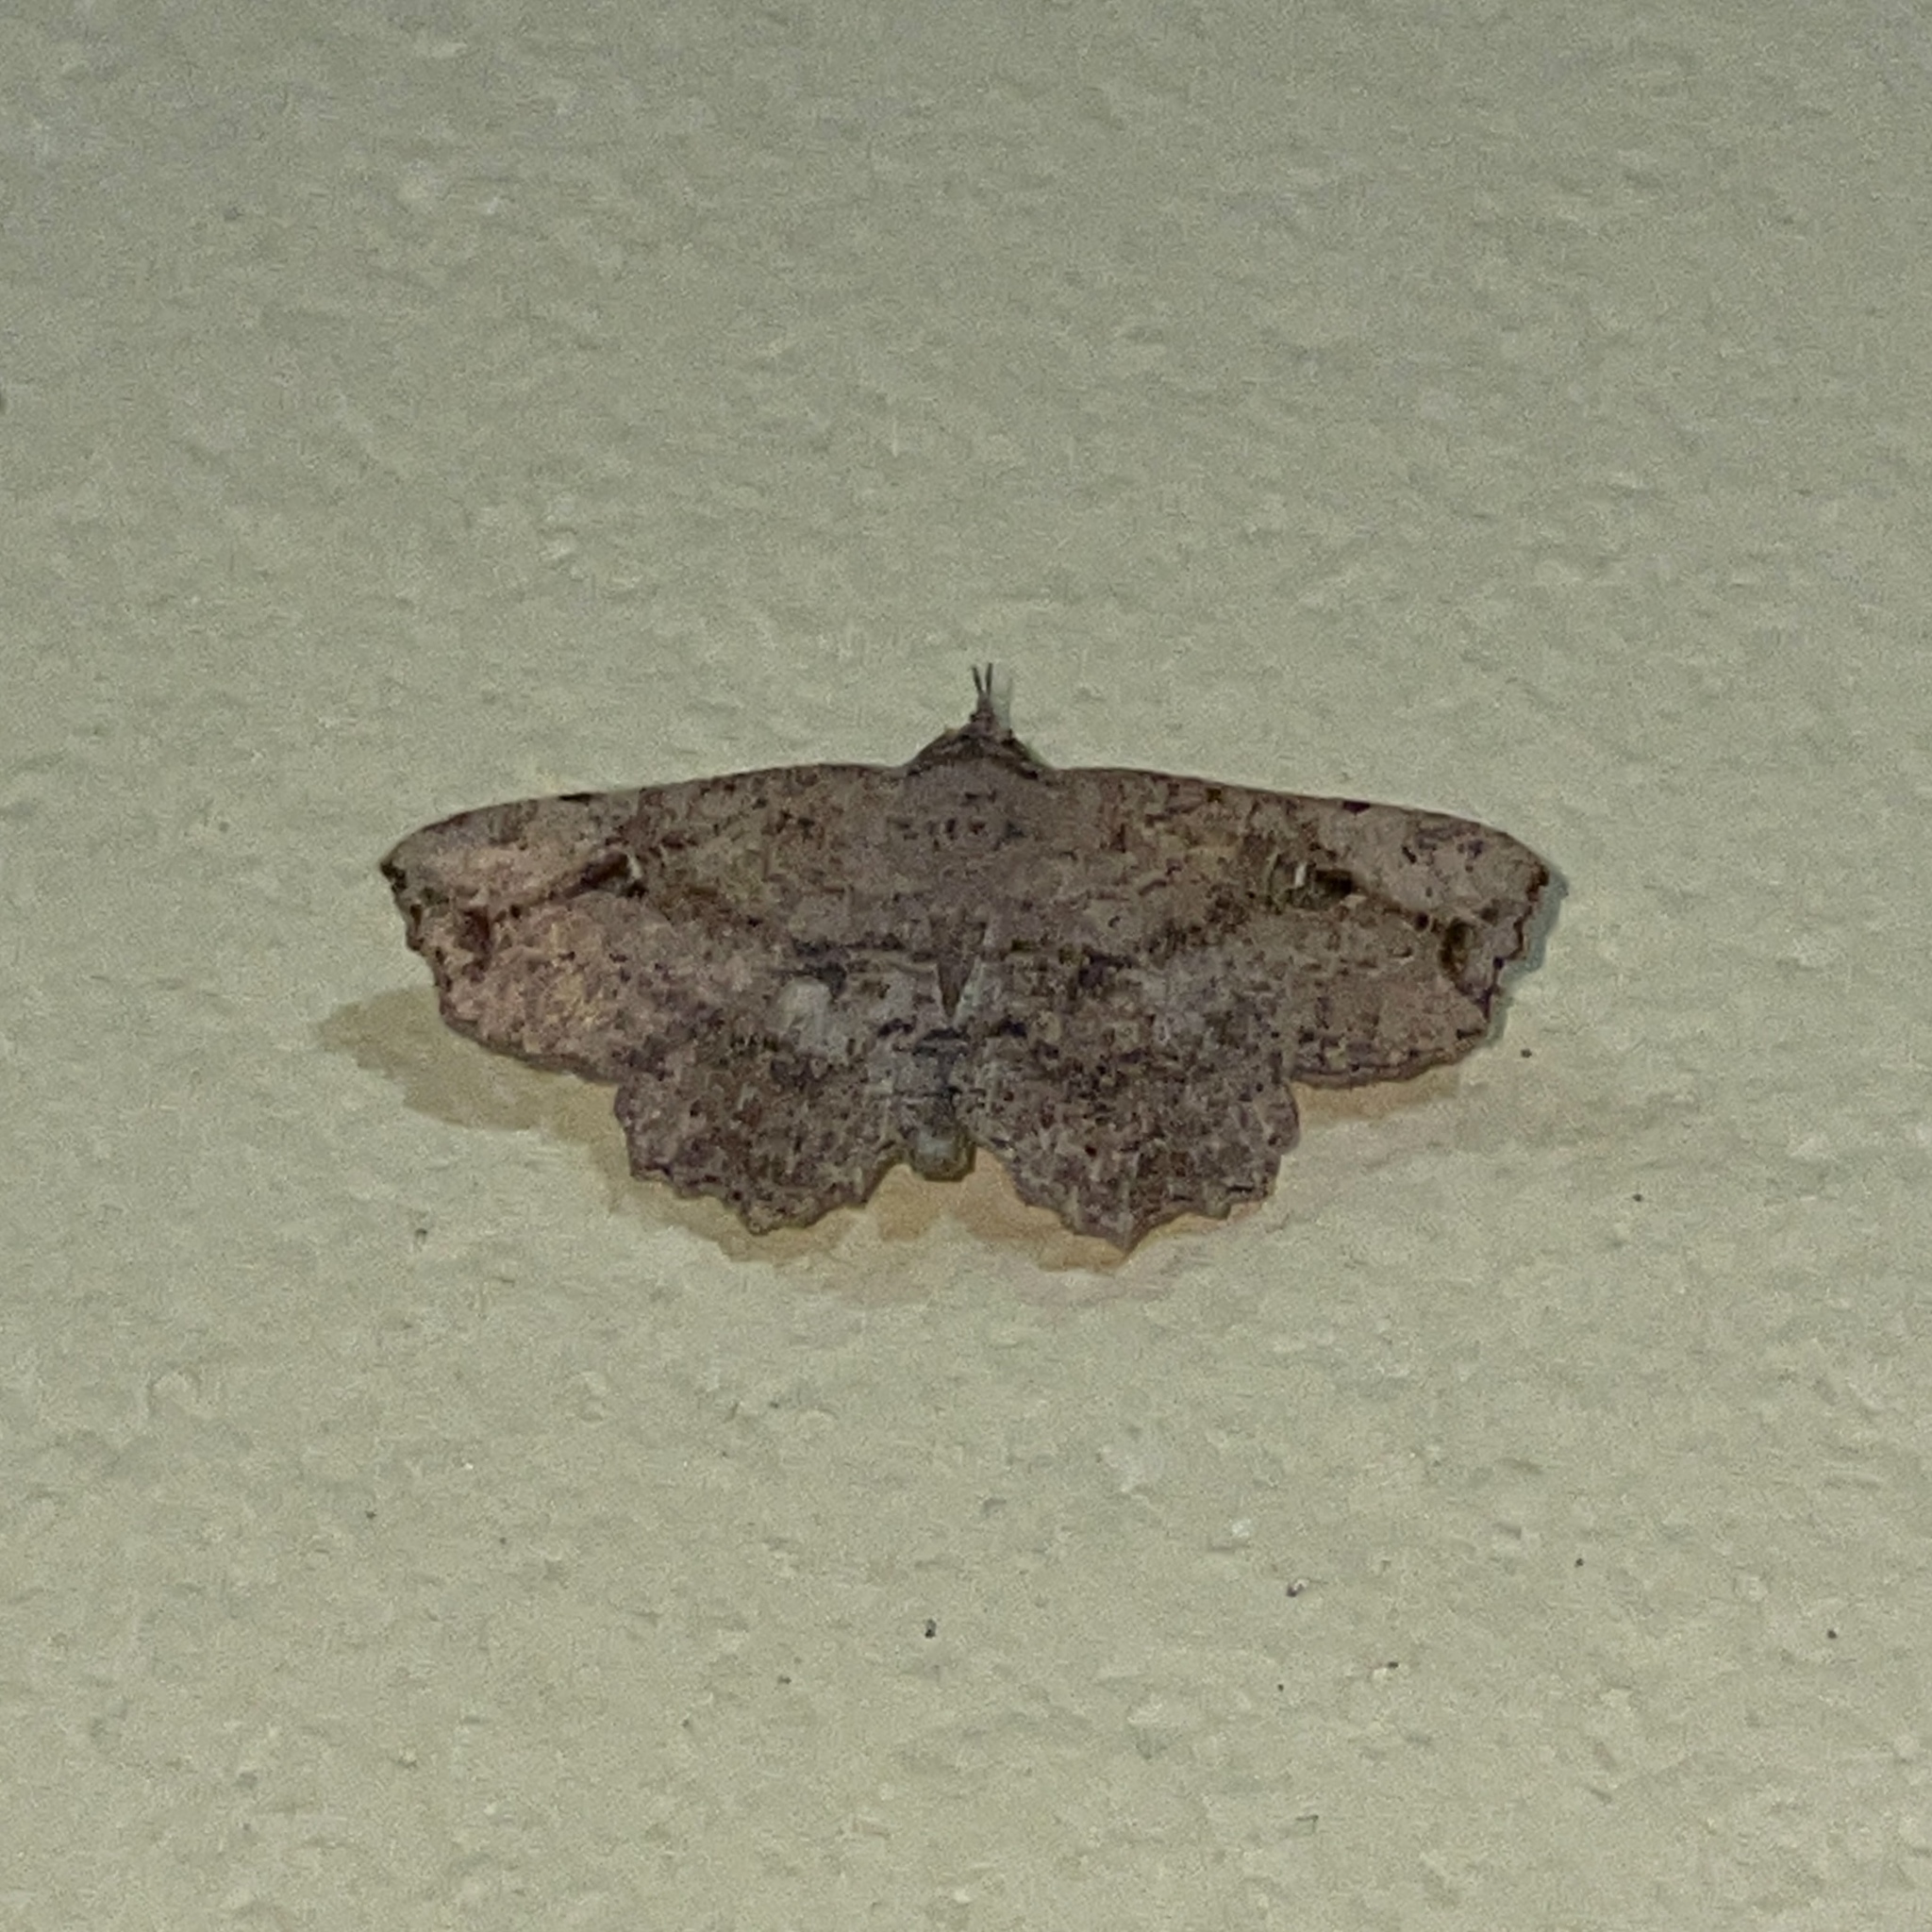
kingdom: Animalia
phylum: Arthropoda
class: Insecta
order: Lepidoptera
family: Erebidae
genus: Oroscopa
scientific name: Oroscopa punctata
